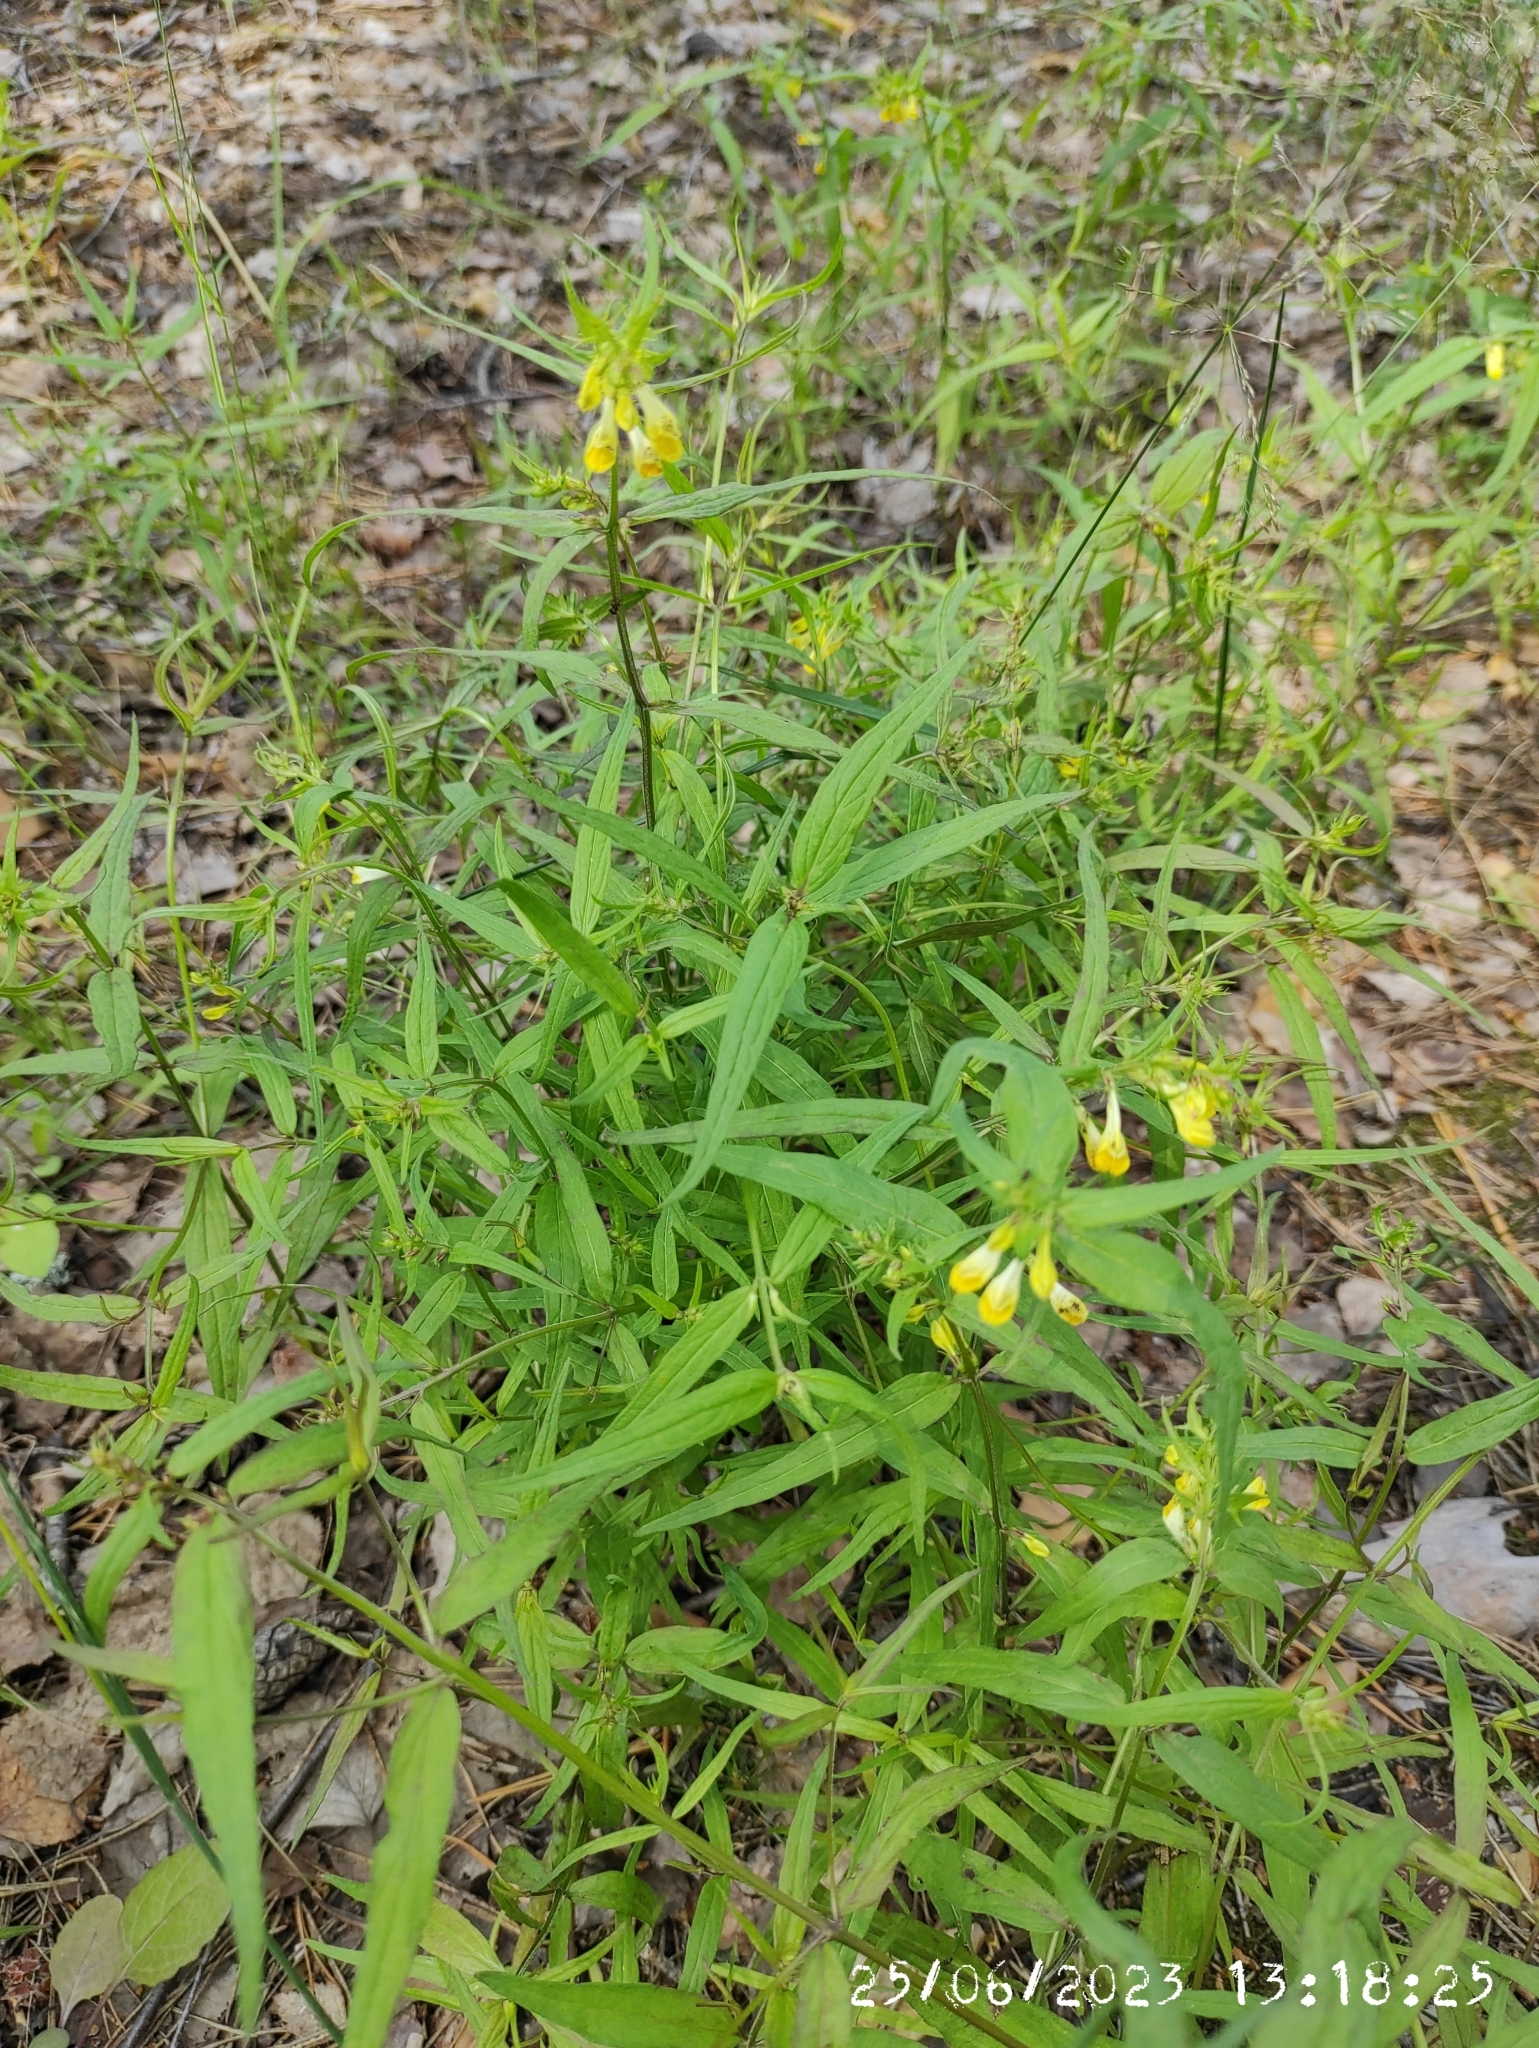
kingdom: Plantae
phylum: Tracheophyta
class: Magnoliopsida
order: Lamiales
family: Orobanchaceae
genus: Melampyrum
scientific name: Melampyrum pratense
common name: Common cow-wheat
